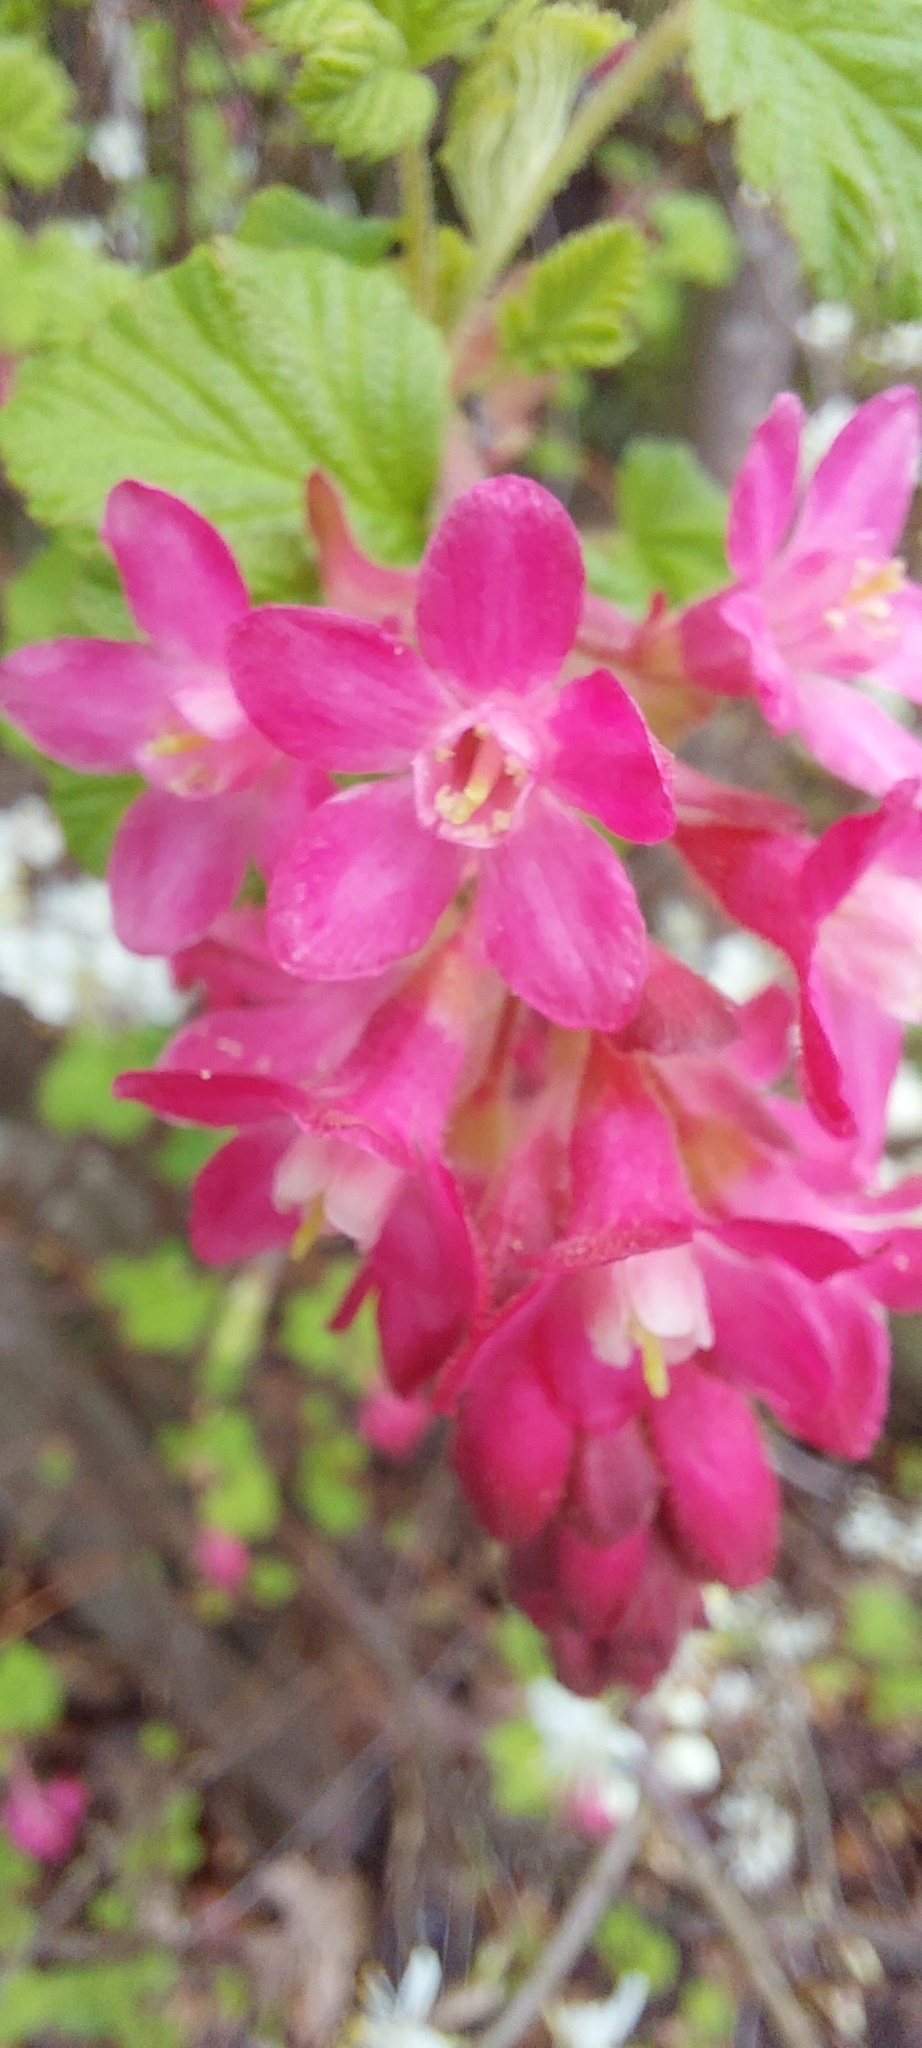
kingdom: Plantae
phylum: Tracheophyta
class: Magnoliopsida
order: Saxifragales
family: Grossulariaceae
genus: Ribes
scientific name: Ribes sanguineum
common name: Flowering currant
